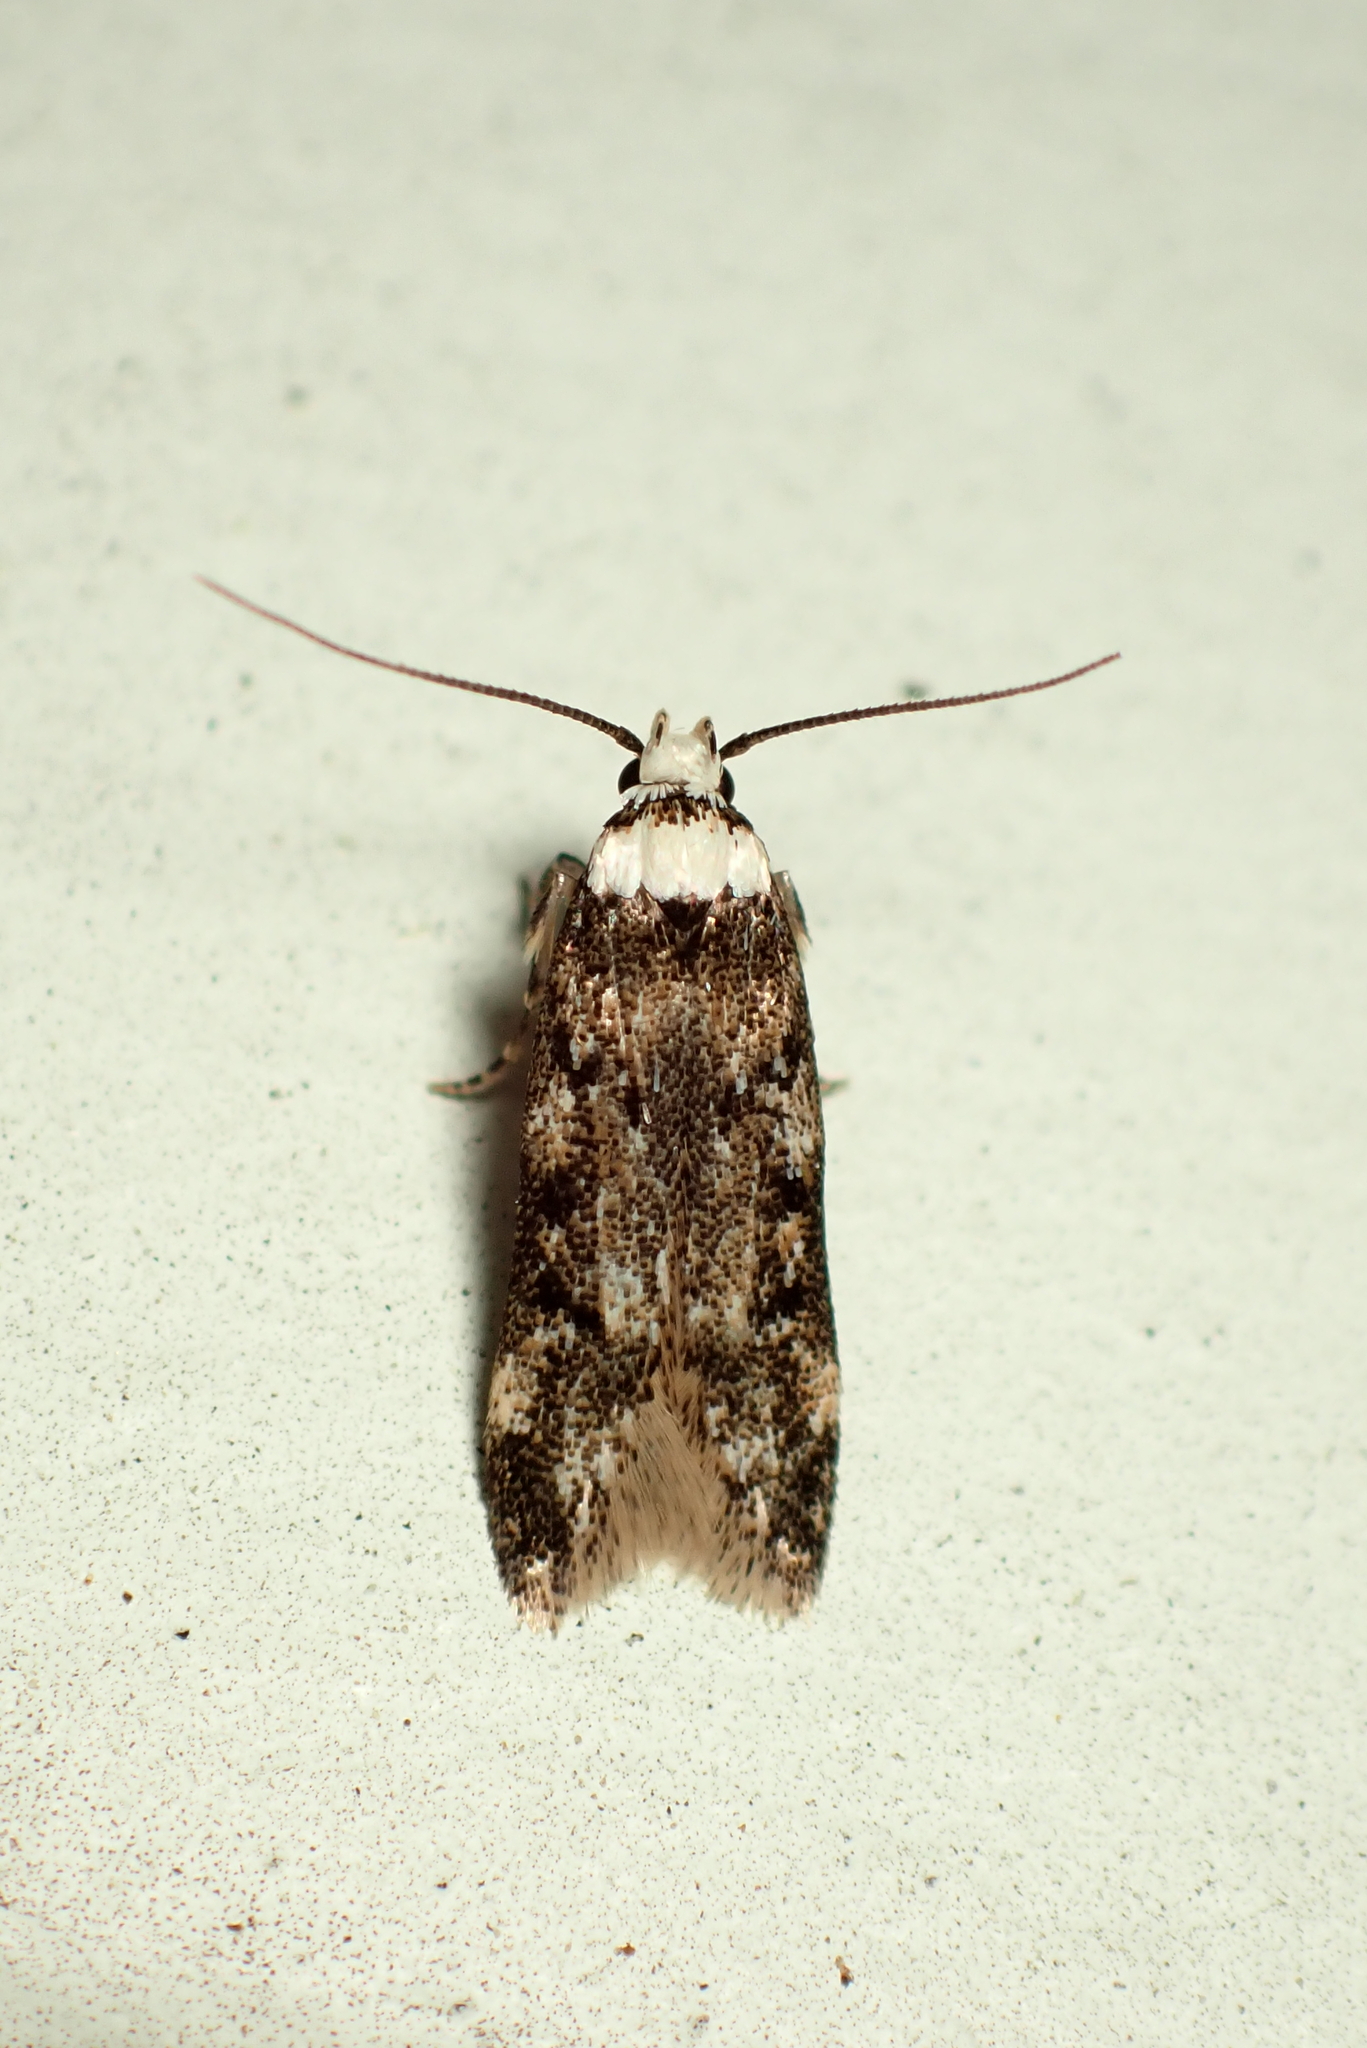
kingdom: Animalia
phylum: Arthropoda
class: Insecta
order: Lepidoptera
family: Oecophoridae
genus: Endrosis
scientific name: Endrosis sarcitrella
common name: White-shouldered house moth
